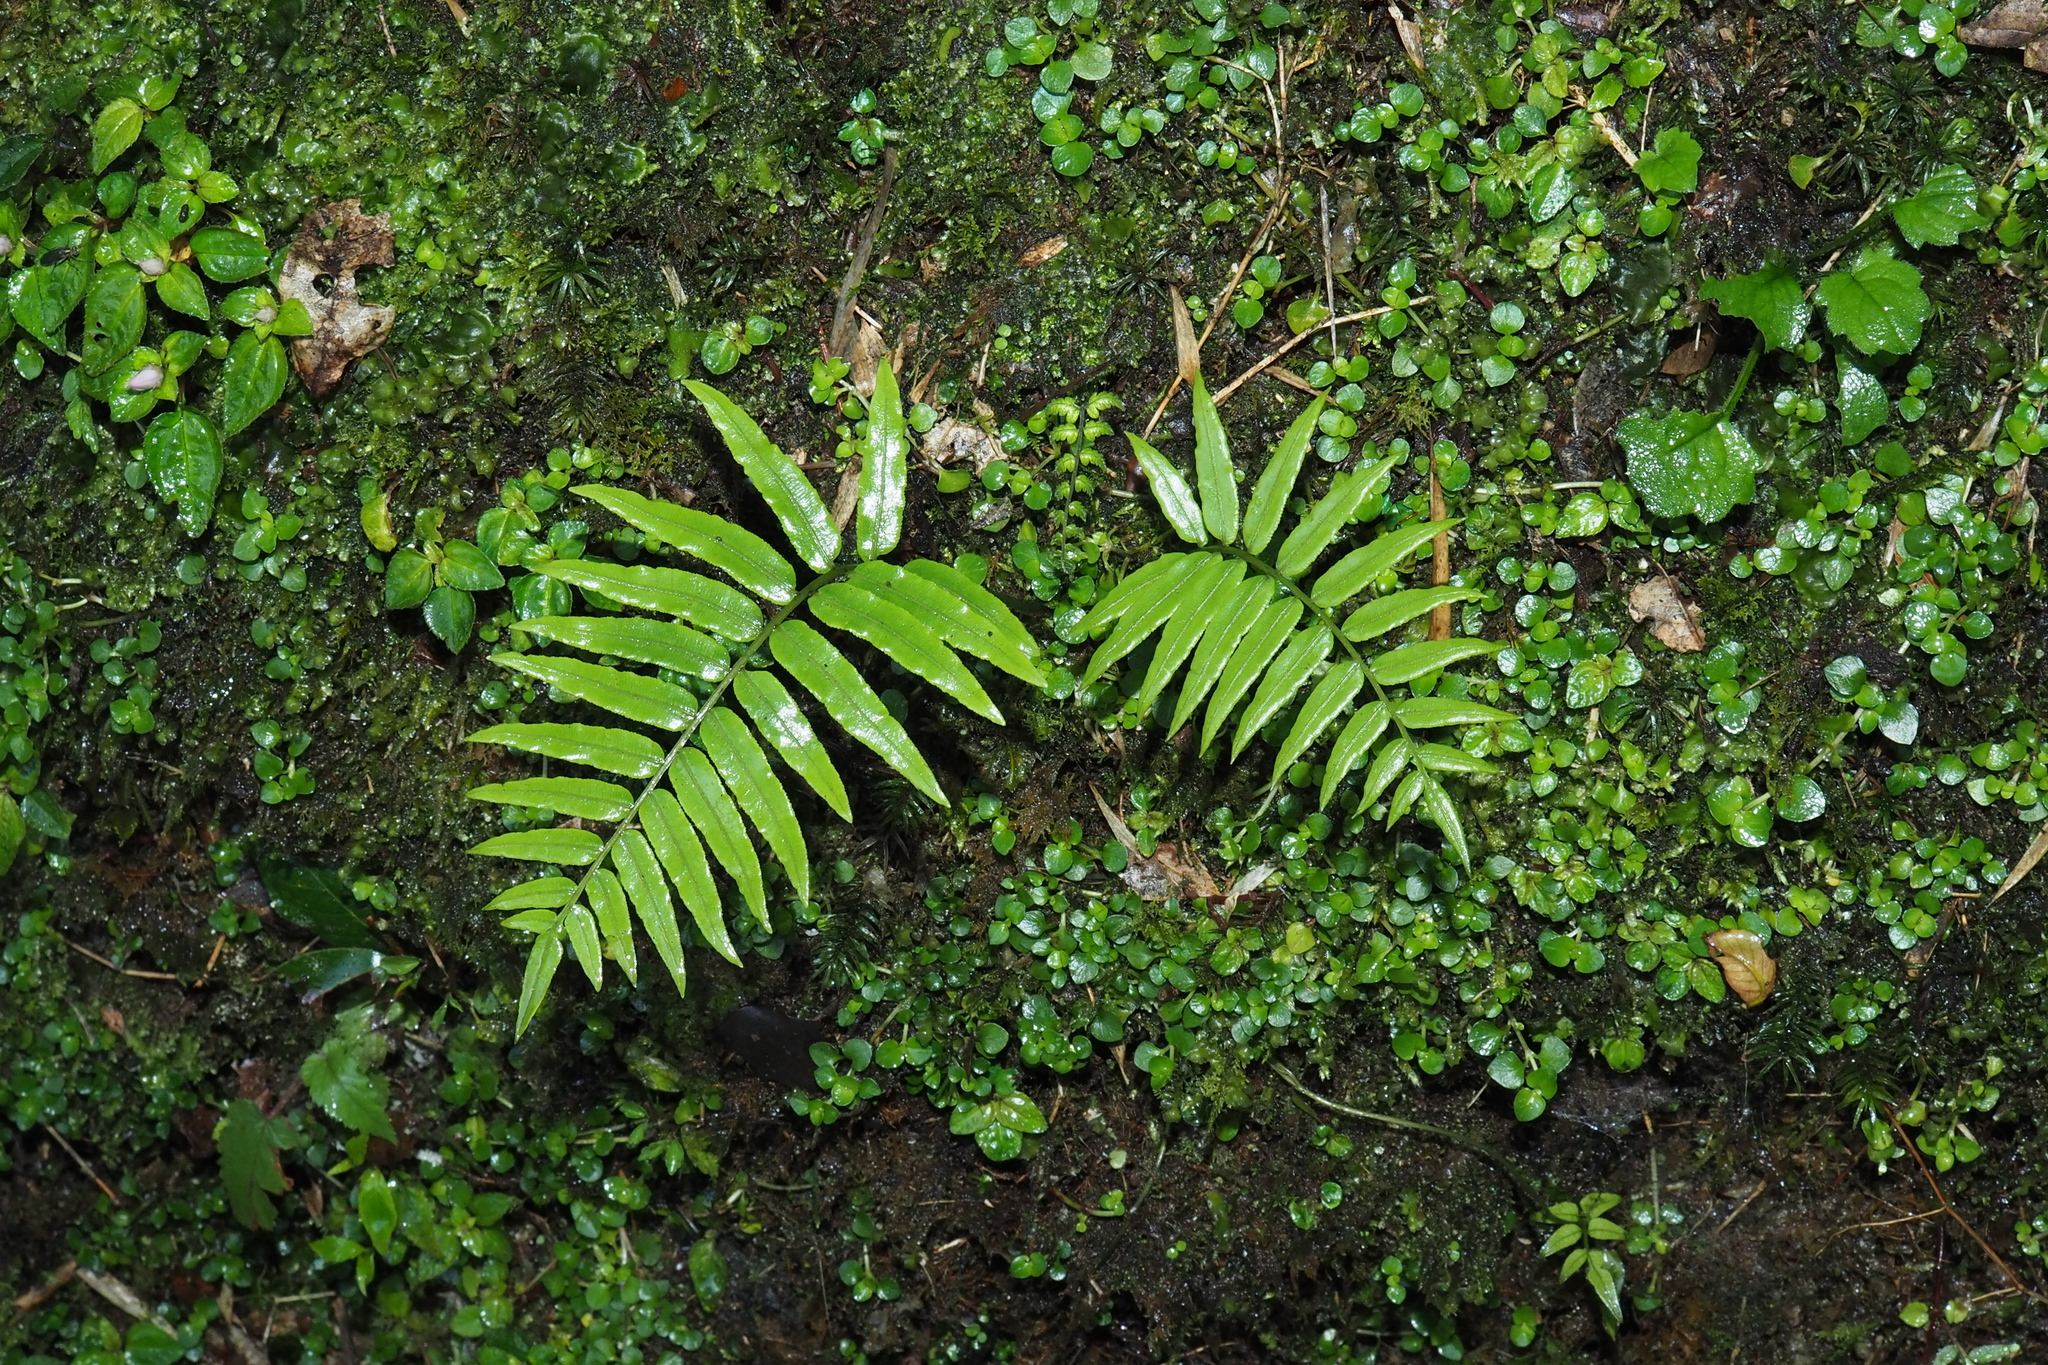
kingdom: Plantae
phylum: Tracheophyta
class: Polypodiopsida
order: Cyatheales
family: Plagiogyriaceae
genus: Plagiogyria
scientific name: Plagiogyria glauca
